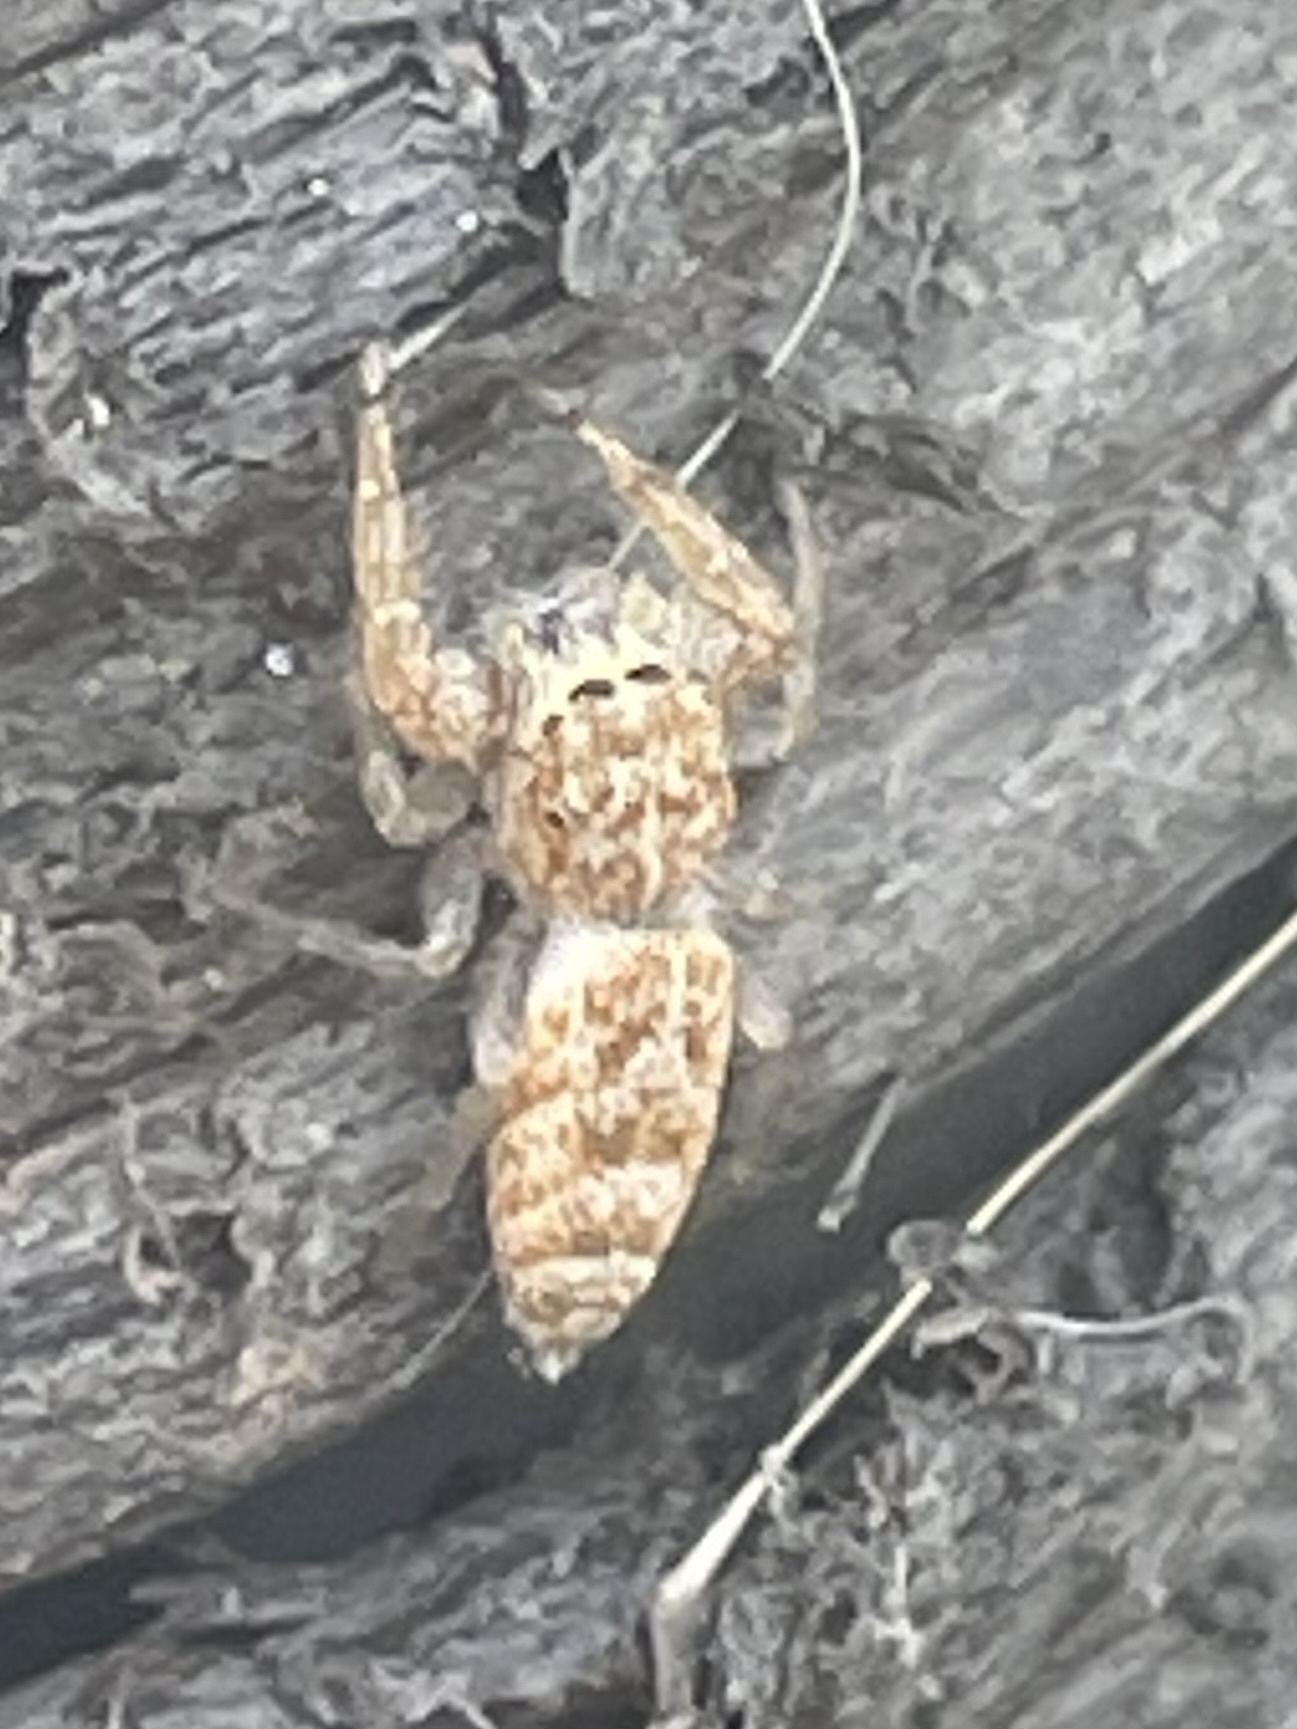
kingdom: Animalia
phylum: Arthropoda
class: Arachnida
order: Araneae
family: Salticidae
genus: Hentzia
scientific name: Hentzia palmarum
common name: Common hentz jumping spider
